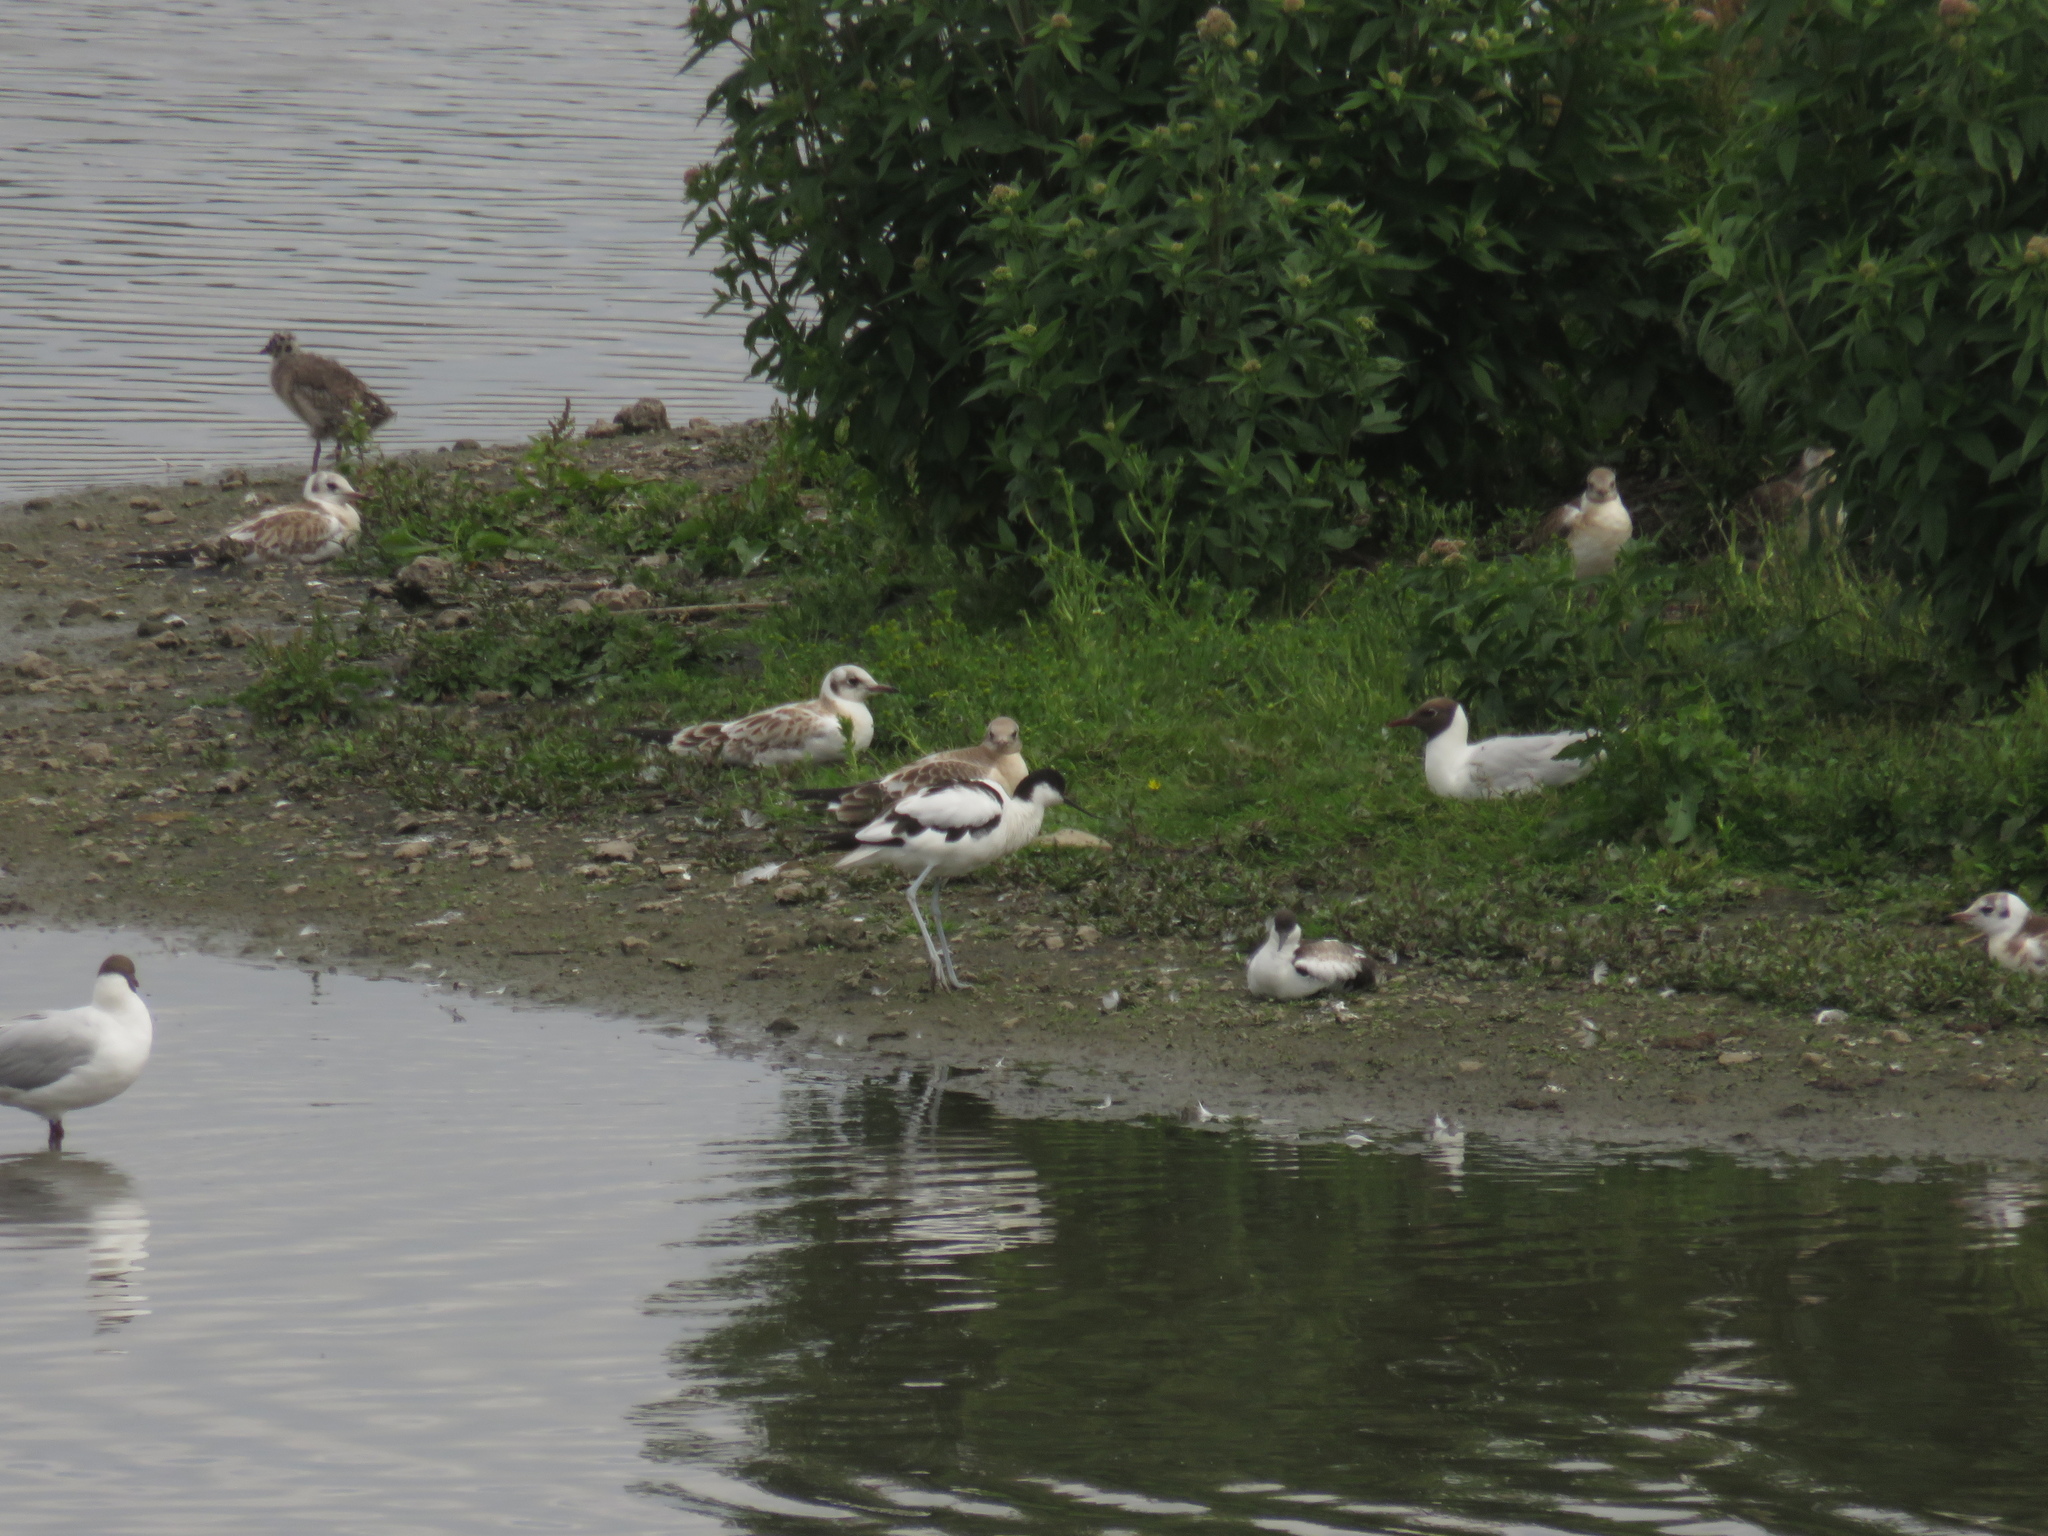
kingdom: Animalia
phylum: Chordata
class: Aves
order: Charadriiformes
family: Recurvirostridae
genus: Recurvirostra
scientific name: Recurvirostra avosetta
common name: Pied avocet
